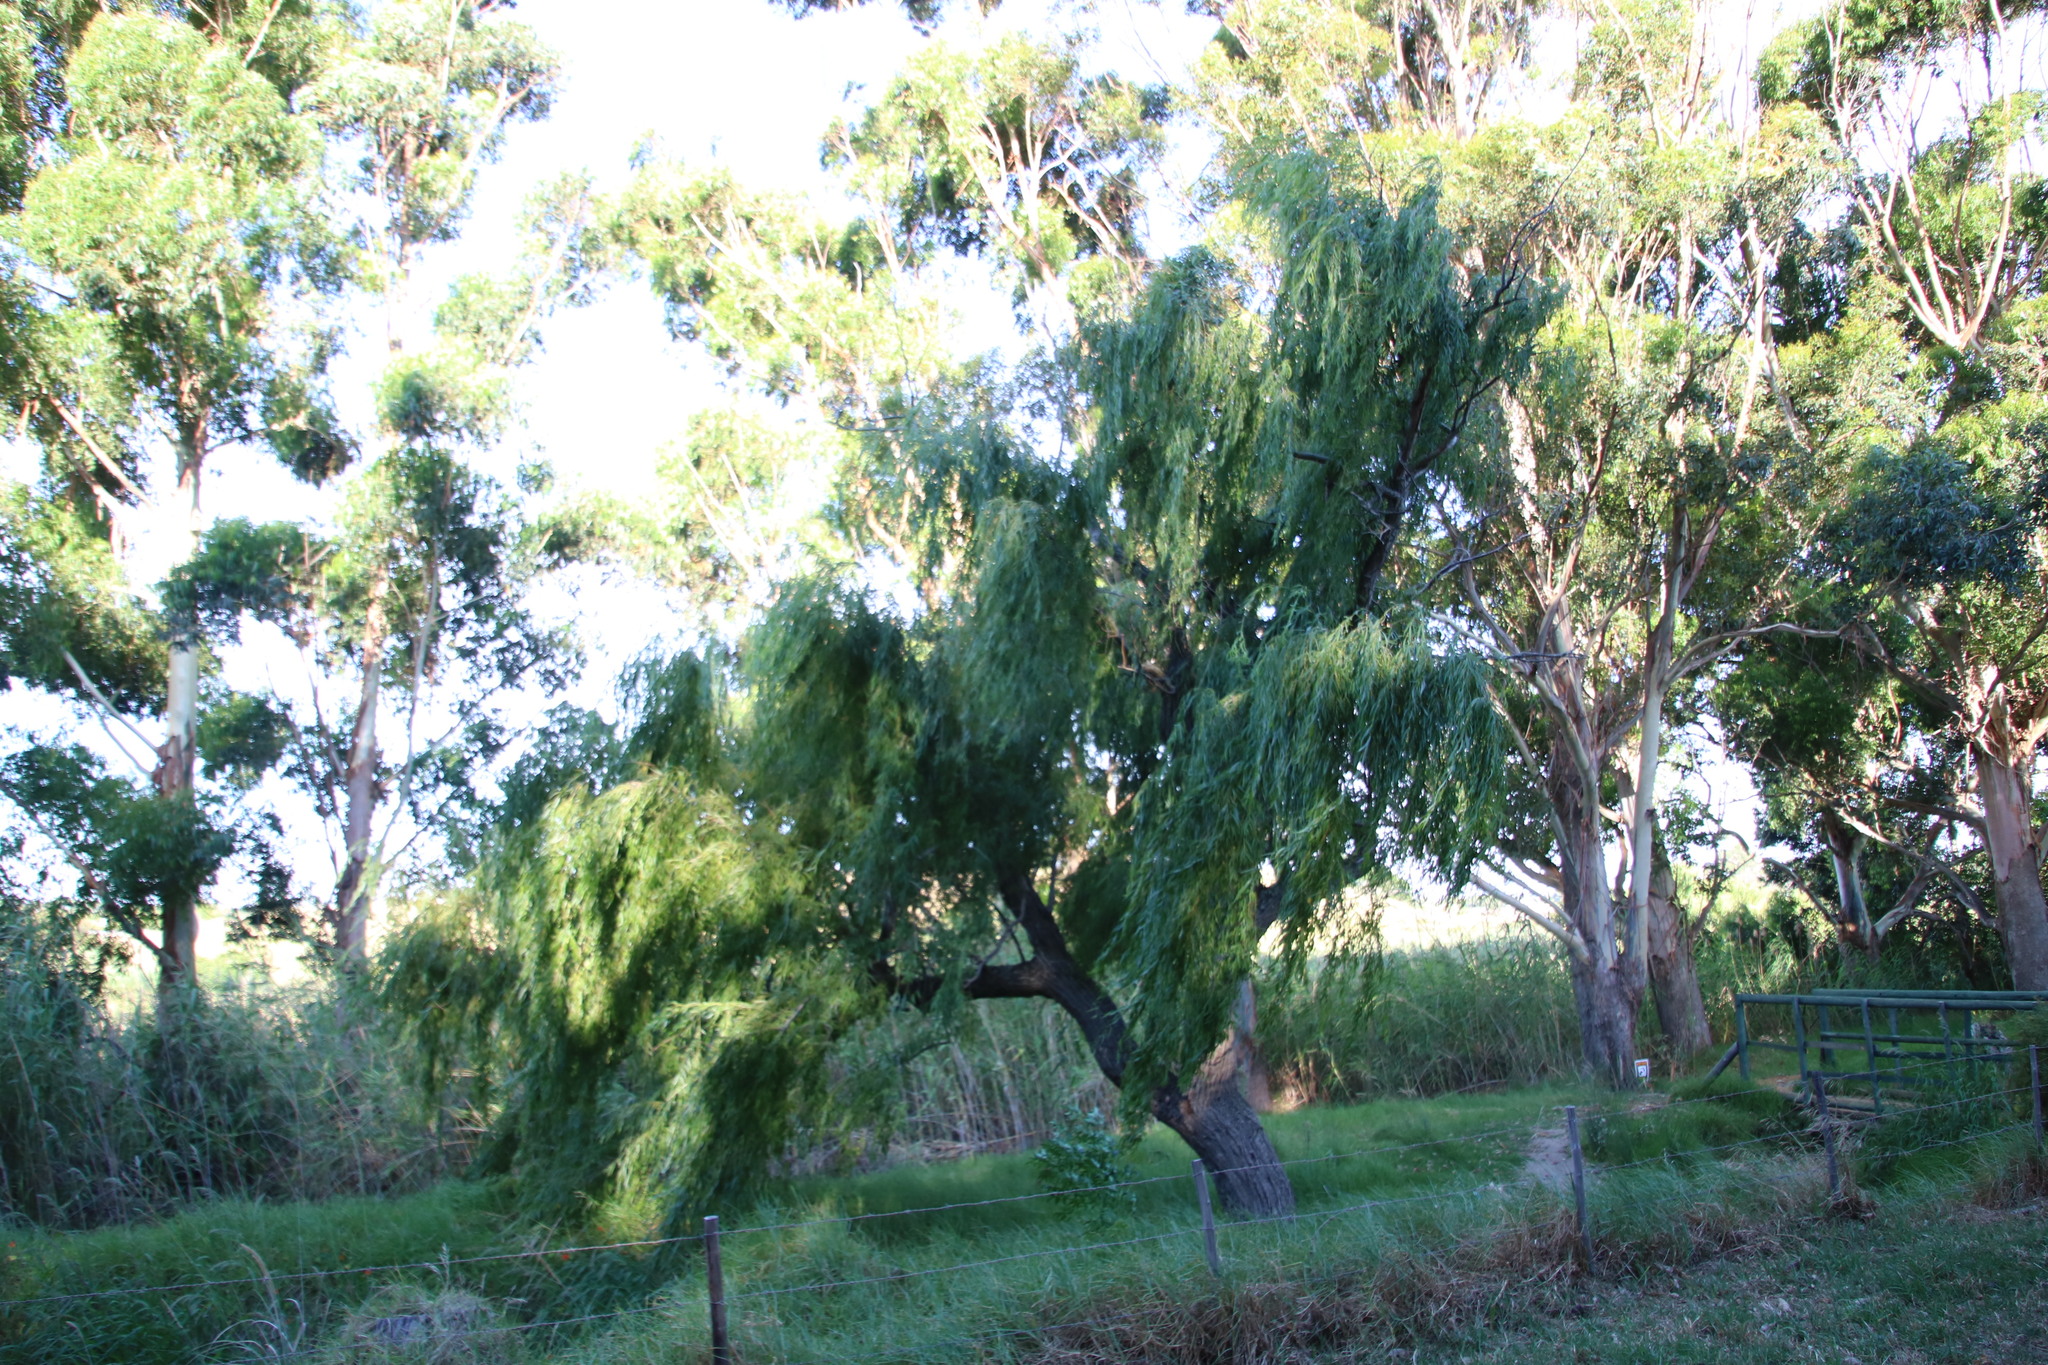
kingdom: Plantae
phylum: Tracheophyta
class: Magnoliopsida
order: Malpighiales
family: Salicaceae
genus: Salix
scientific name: Salix babylonica
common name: Weeping willow
